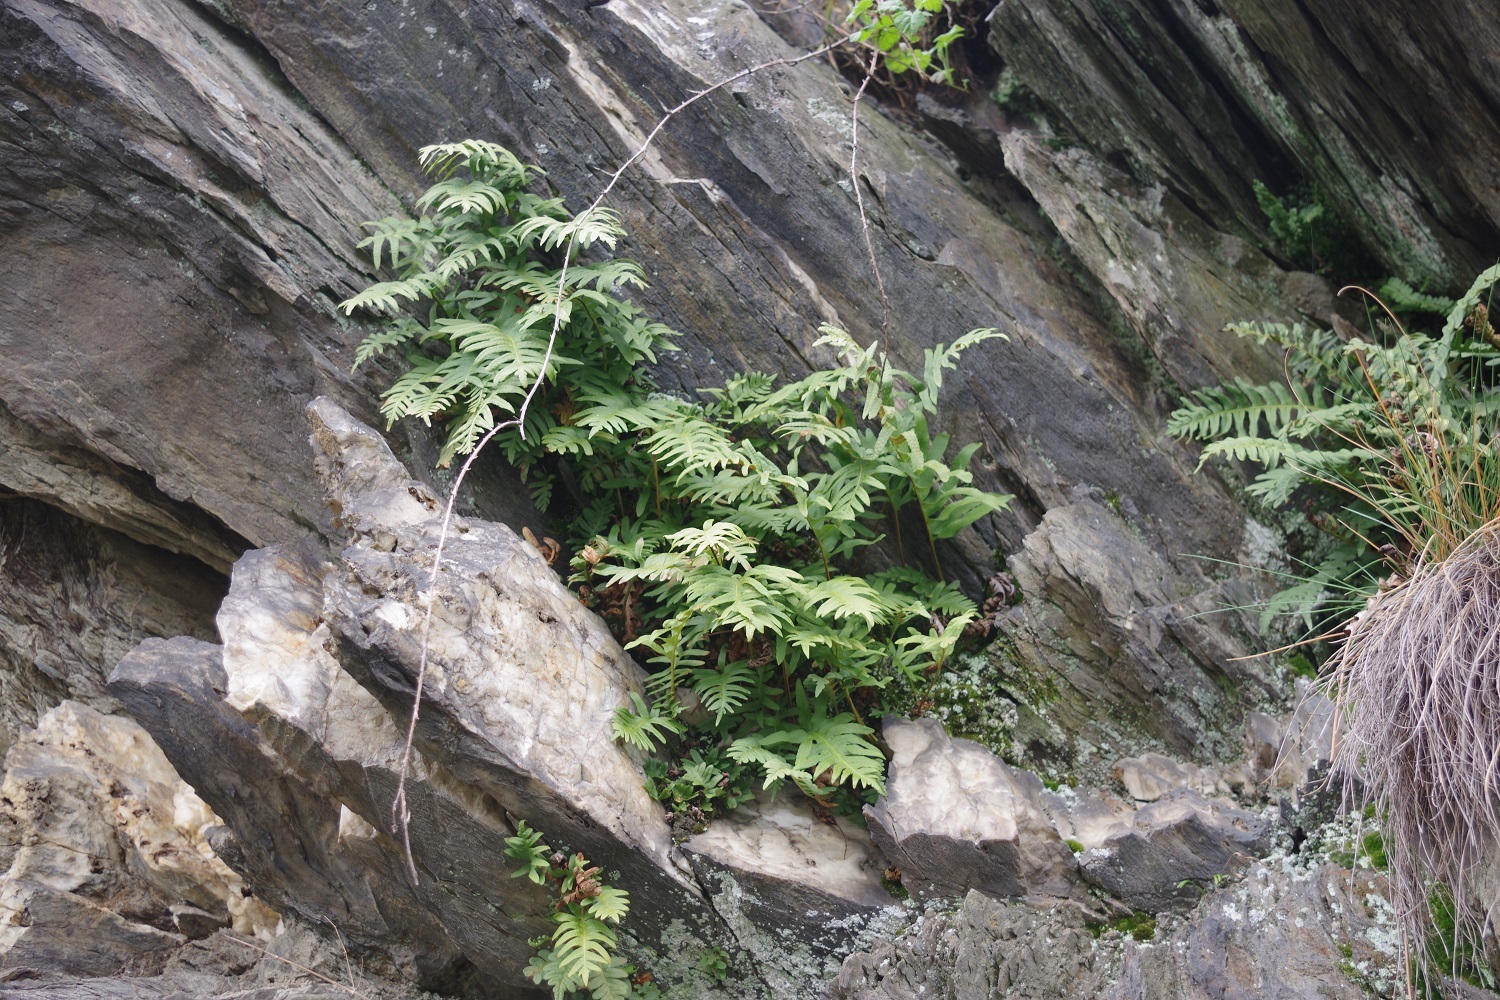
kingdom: Plantae
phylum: Tracheophyta
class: Polypodiopsida
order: Polypodiales
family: Polypodiaceae
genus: Polypodium
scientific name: Polypodium interjectum
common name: Intermediate polypody
